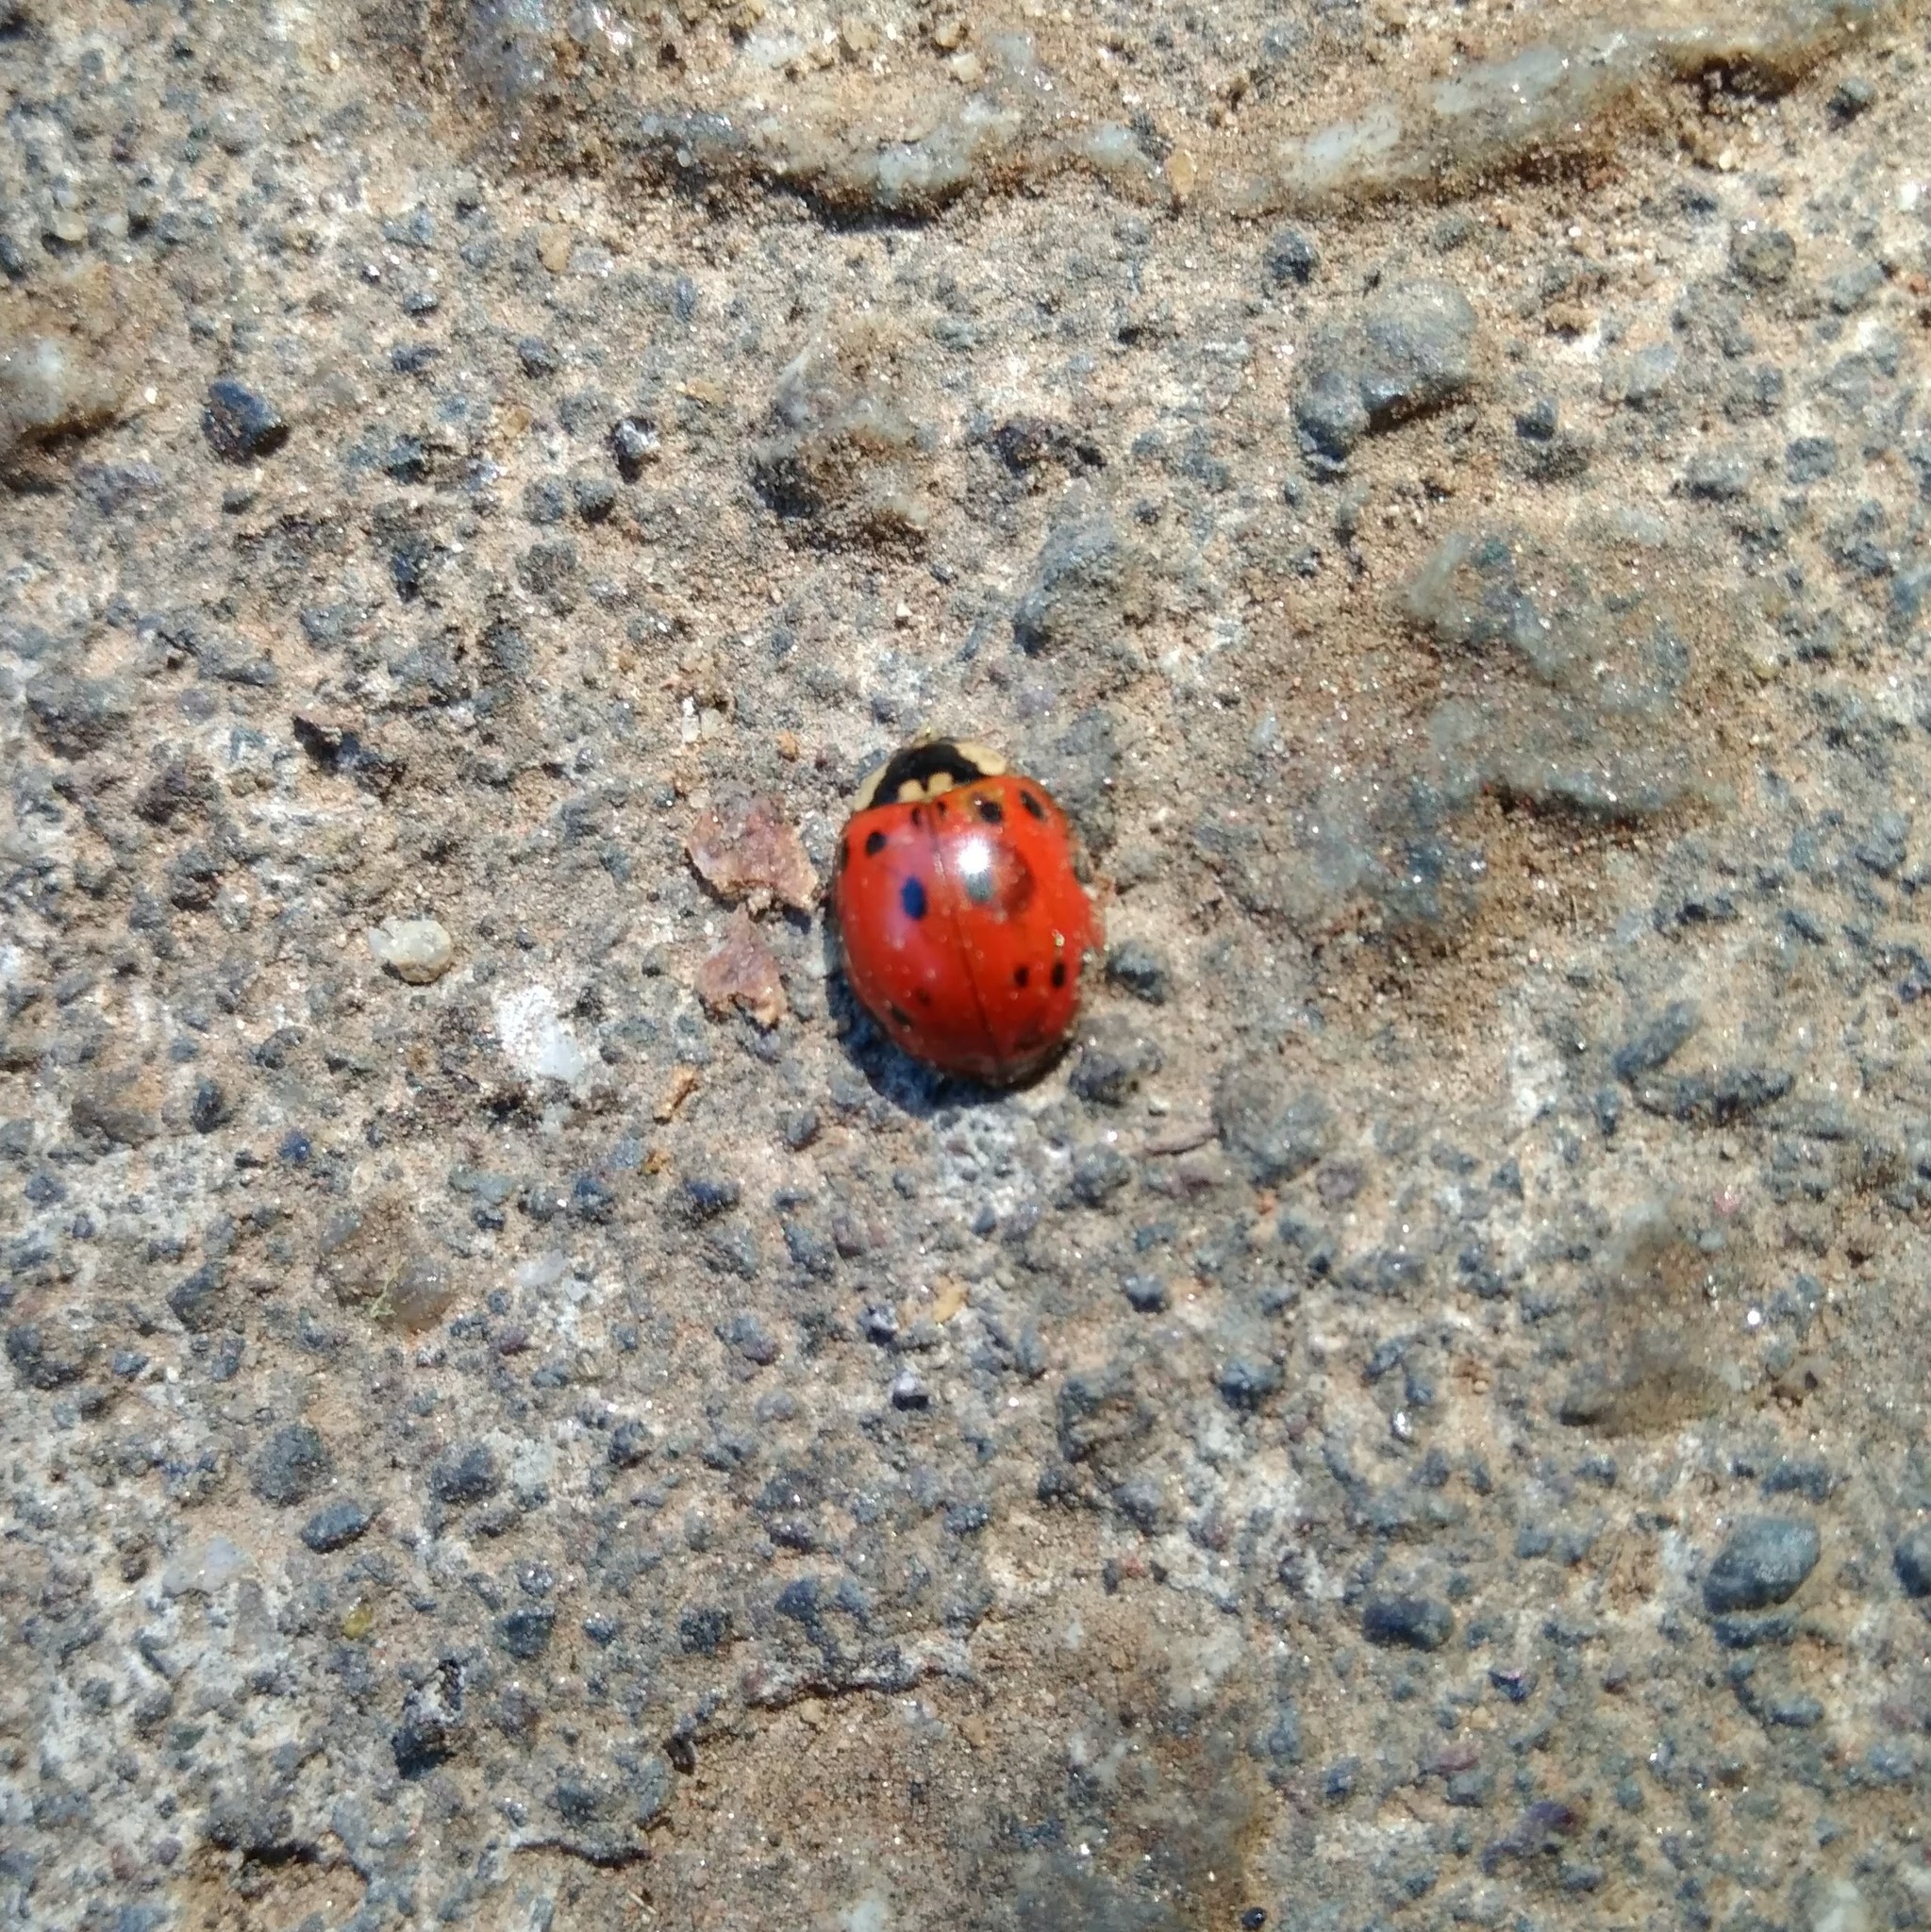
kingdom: Animalia
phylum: Arthropoda
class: Insecta
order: Coleoptera
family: Coccinellidae
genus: Harmonia
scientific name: Harmonia axyridis
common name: Harlequin ladybird
